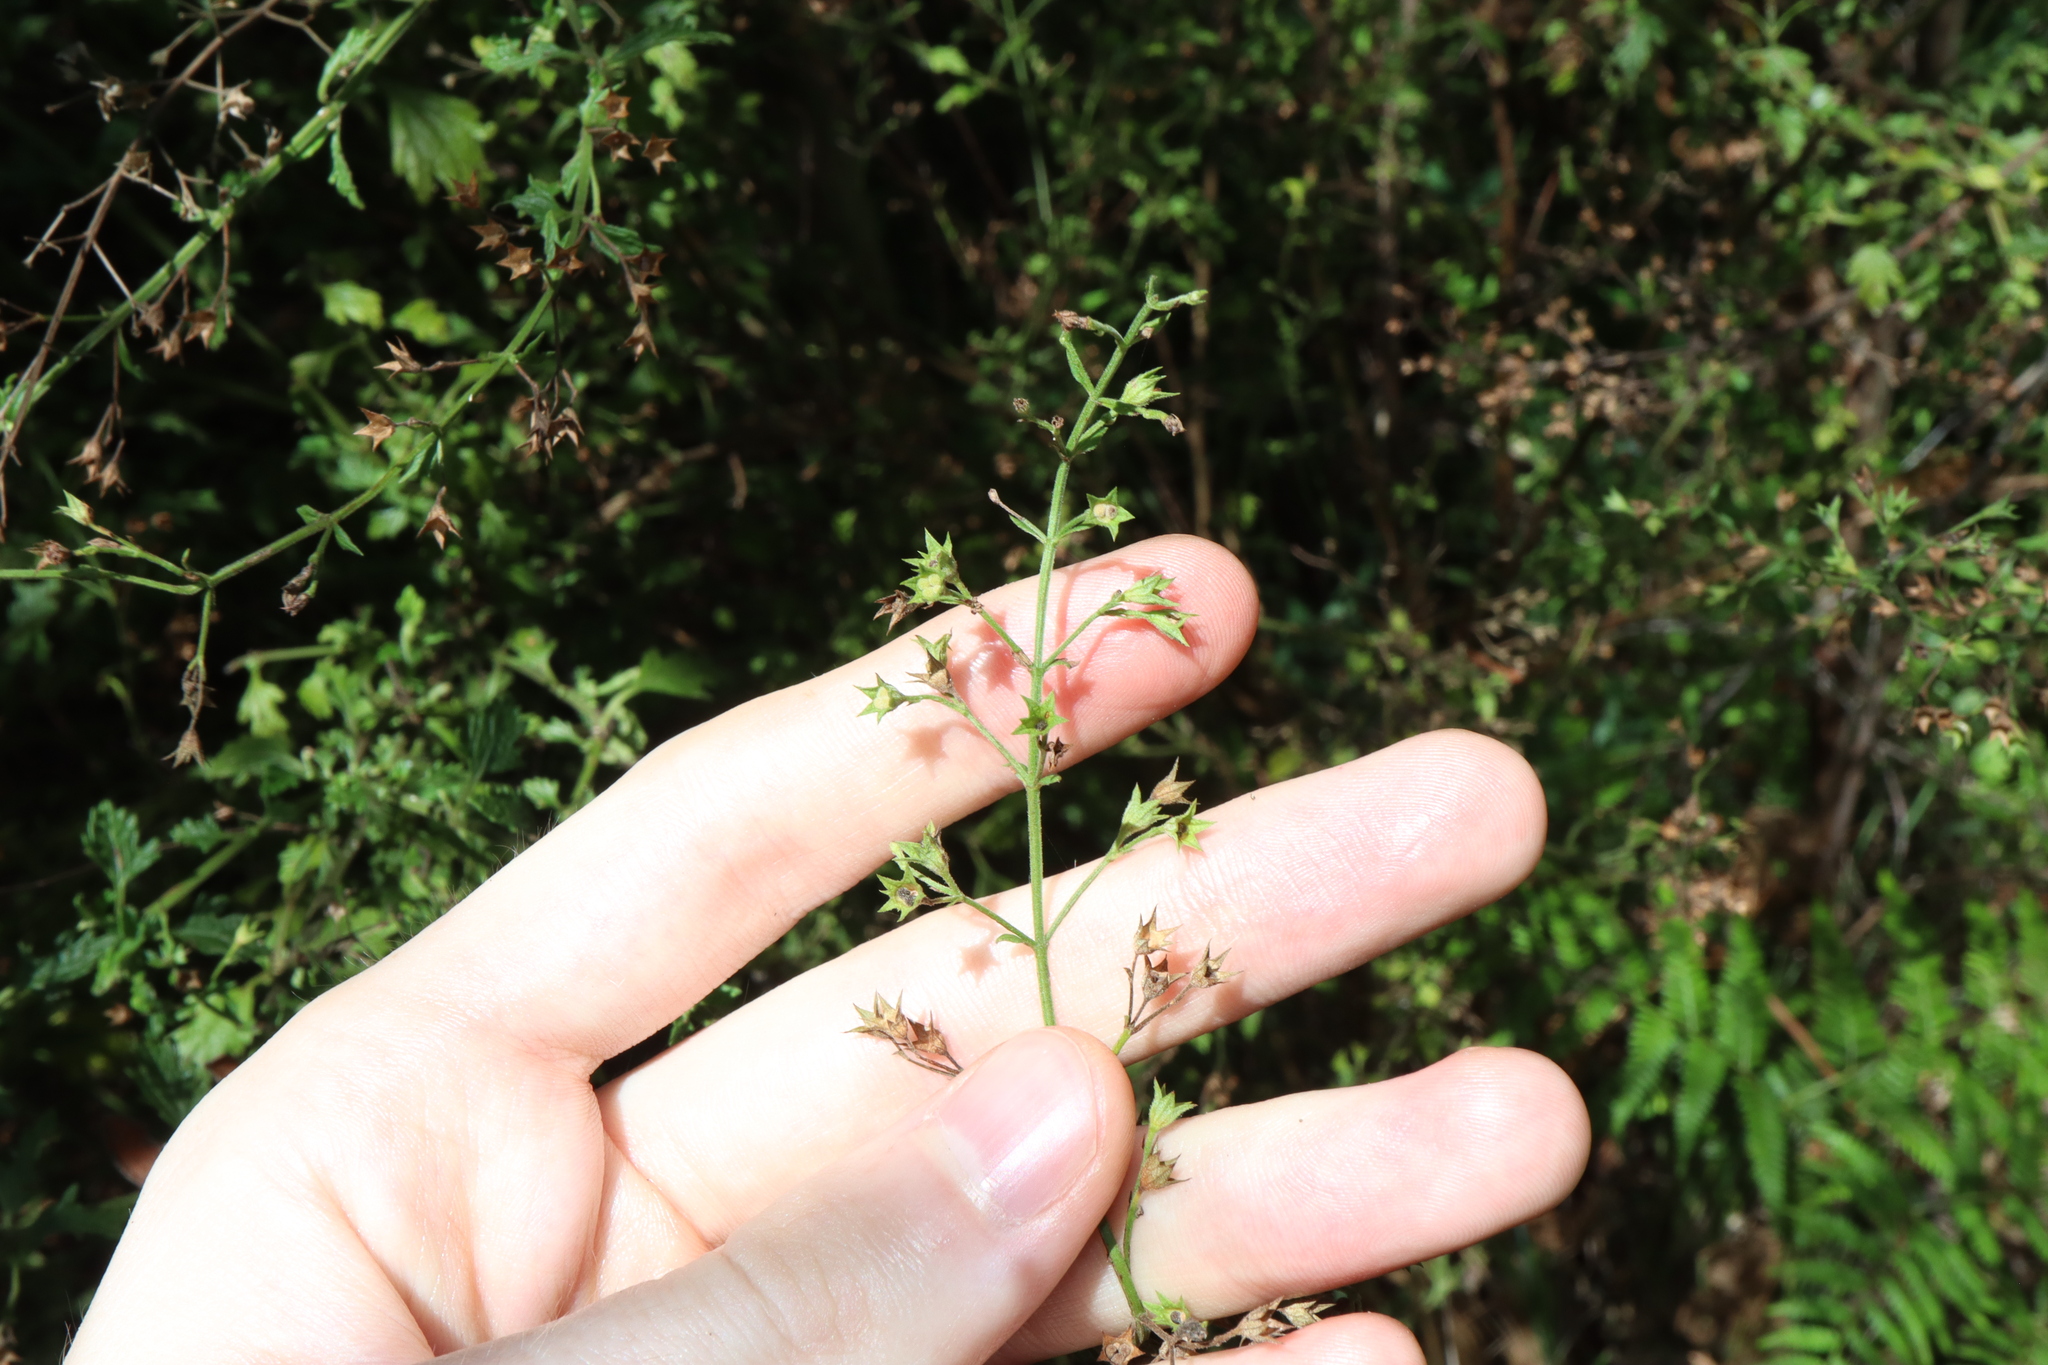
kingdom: Plantae
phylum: Tracheophyta
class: Magnoliopsida
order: Lamiales
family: Lamiaceae
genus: Teucrium
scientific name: Teucrium corymbosum
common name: Forest germander
